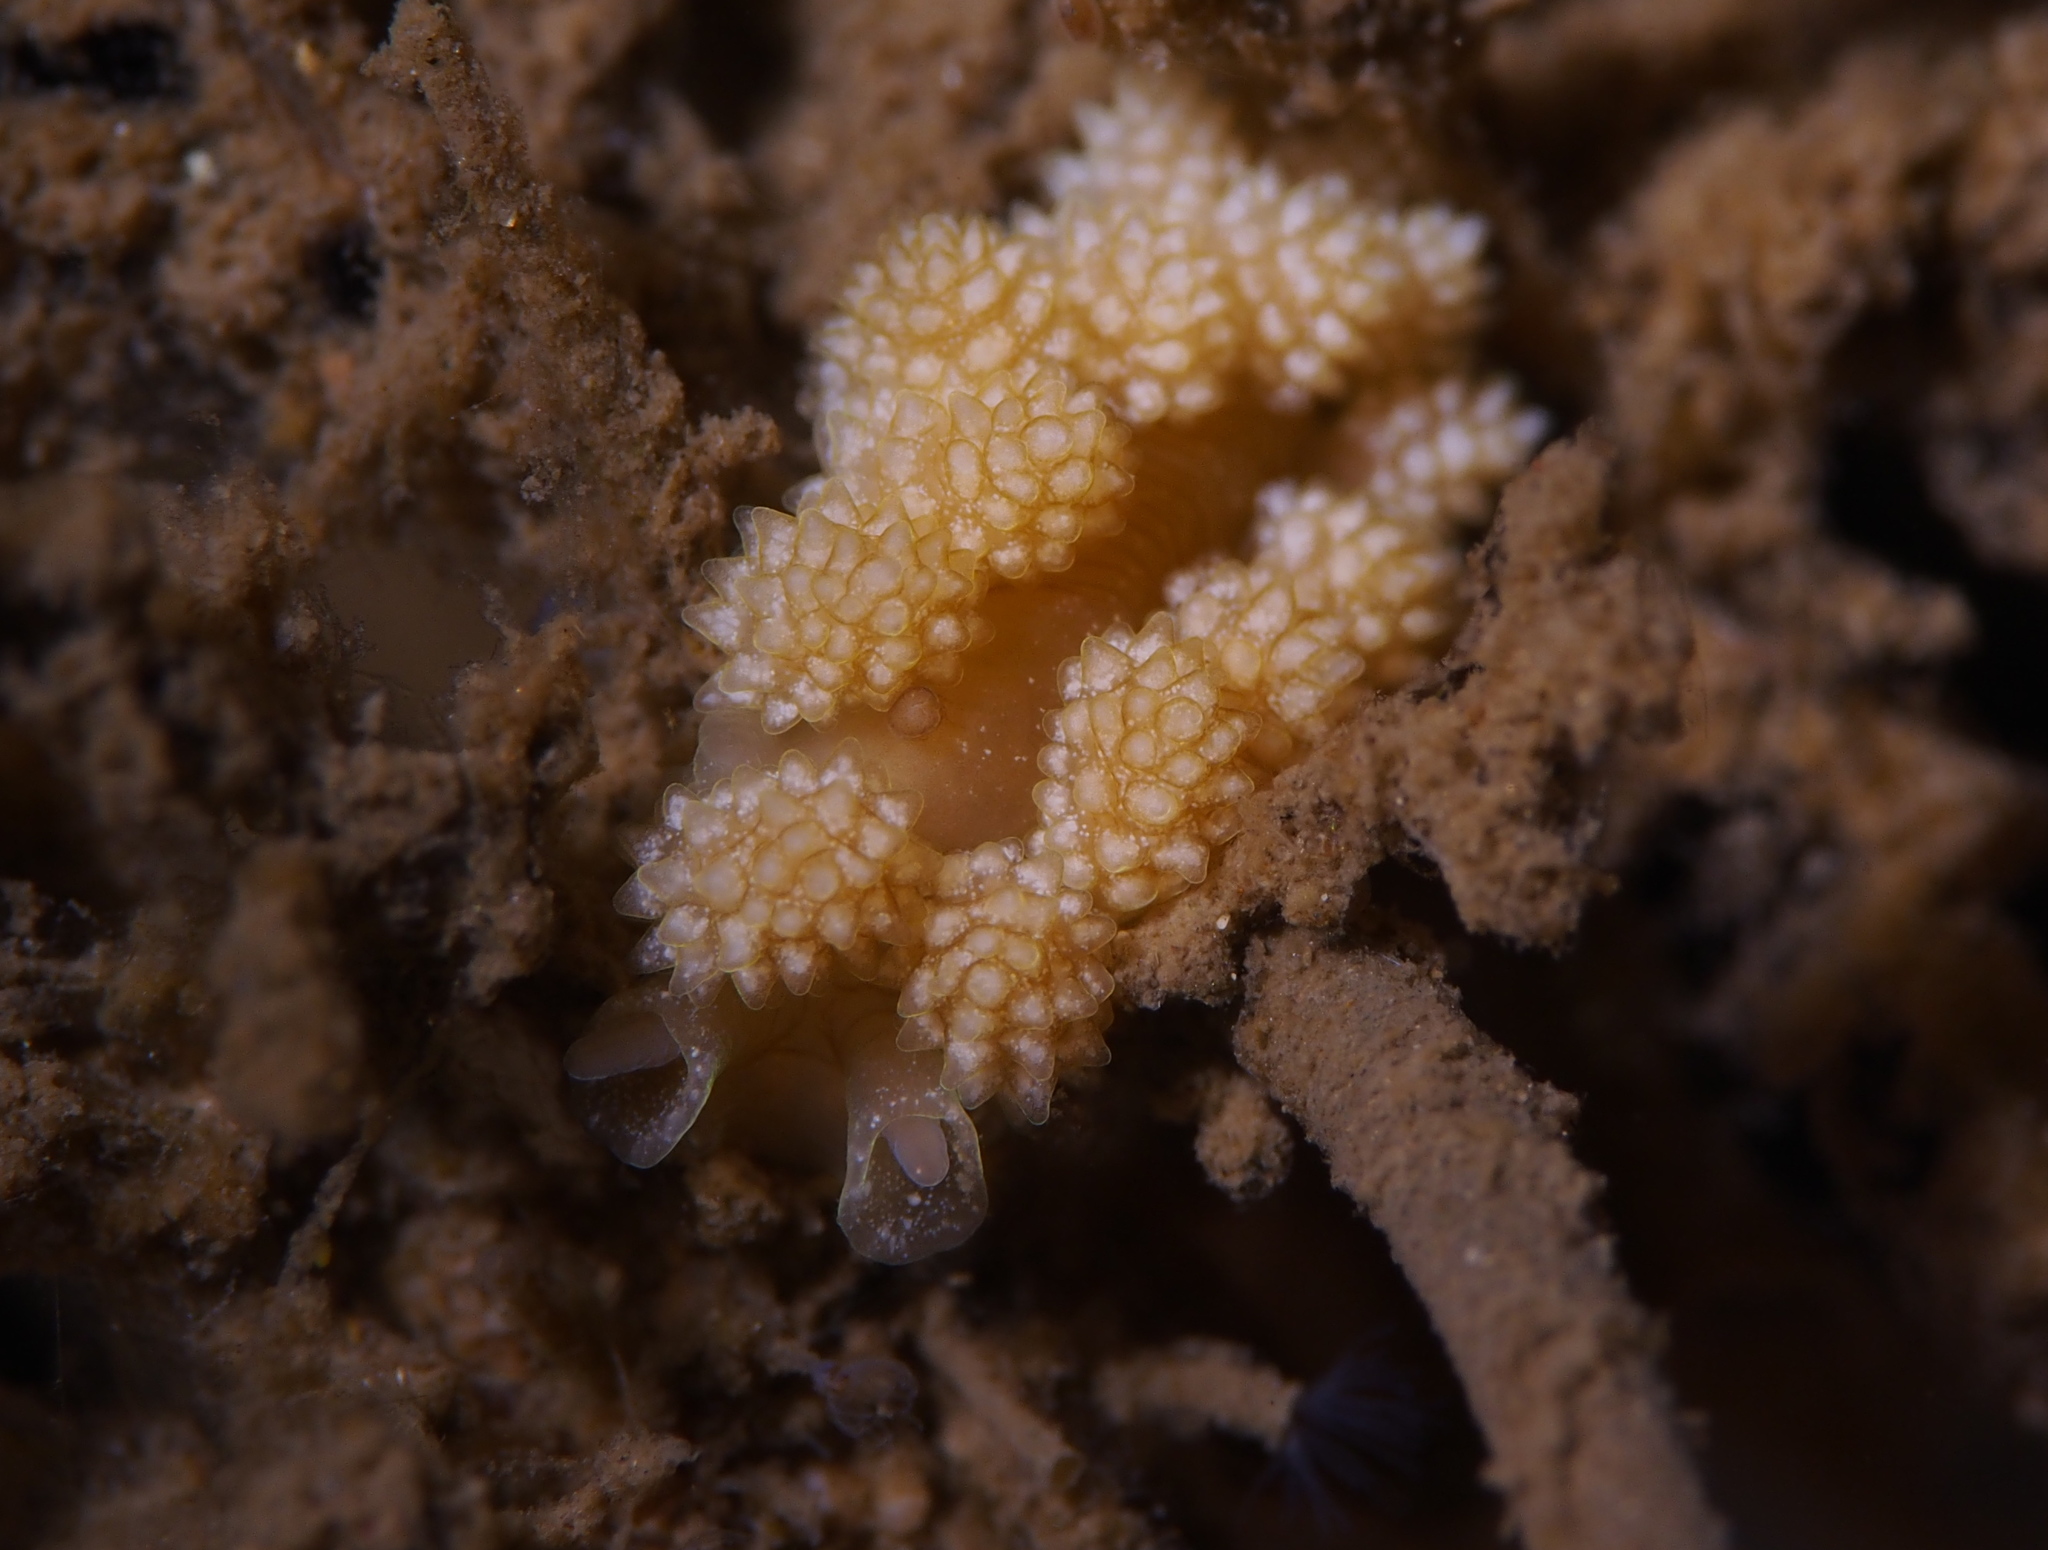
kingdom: Animalia
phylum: Mollusca
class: Gastropoda
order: Nudibranchia
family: Dotidae
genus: Doto
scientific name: Doto fragilis
